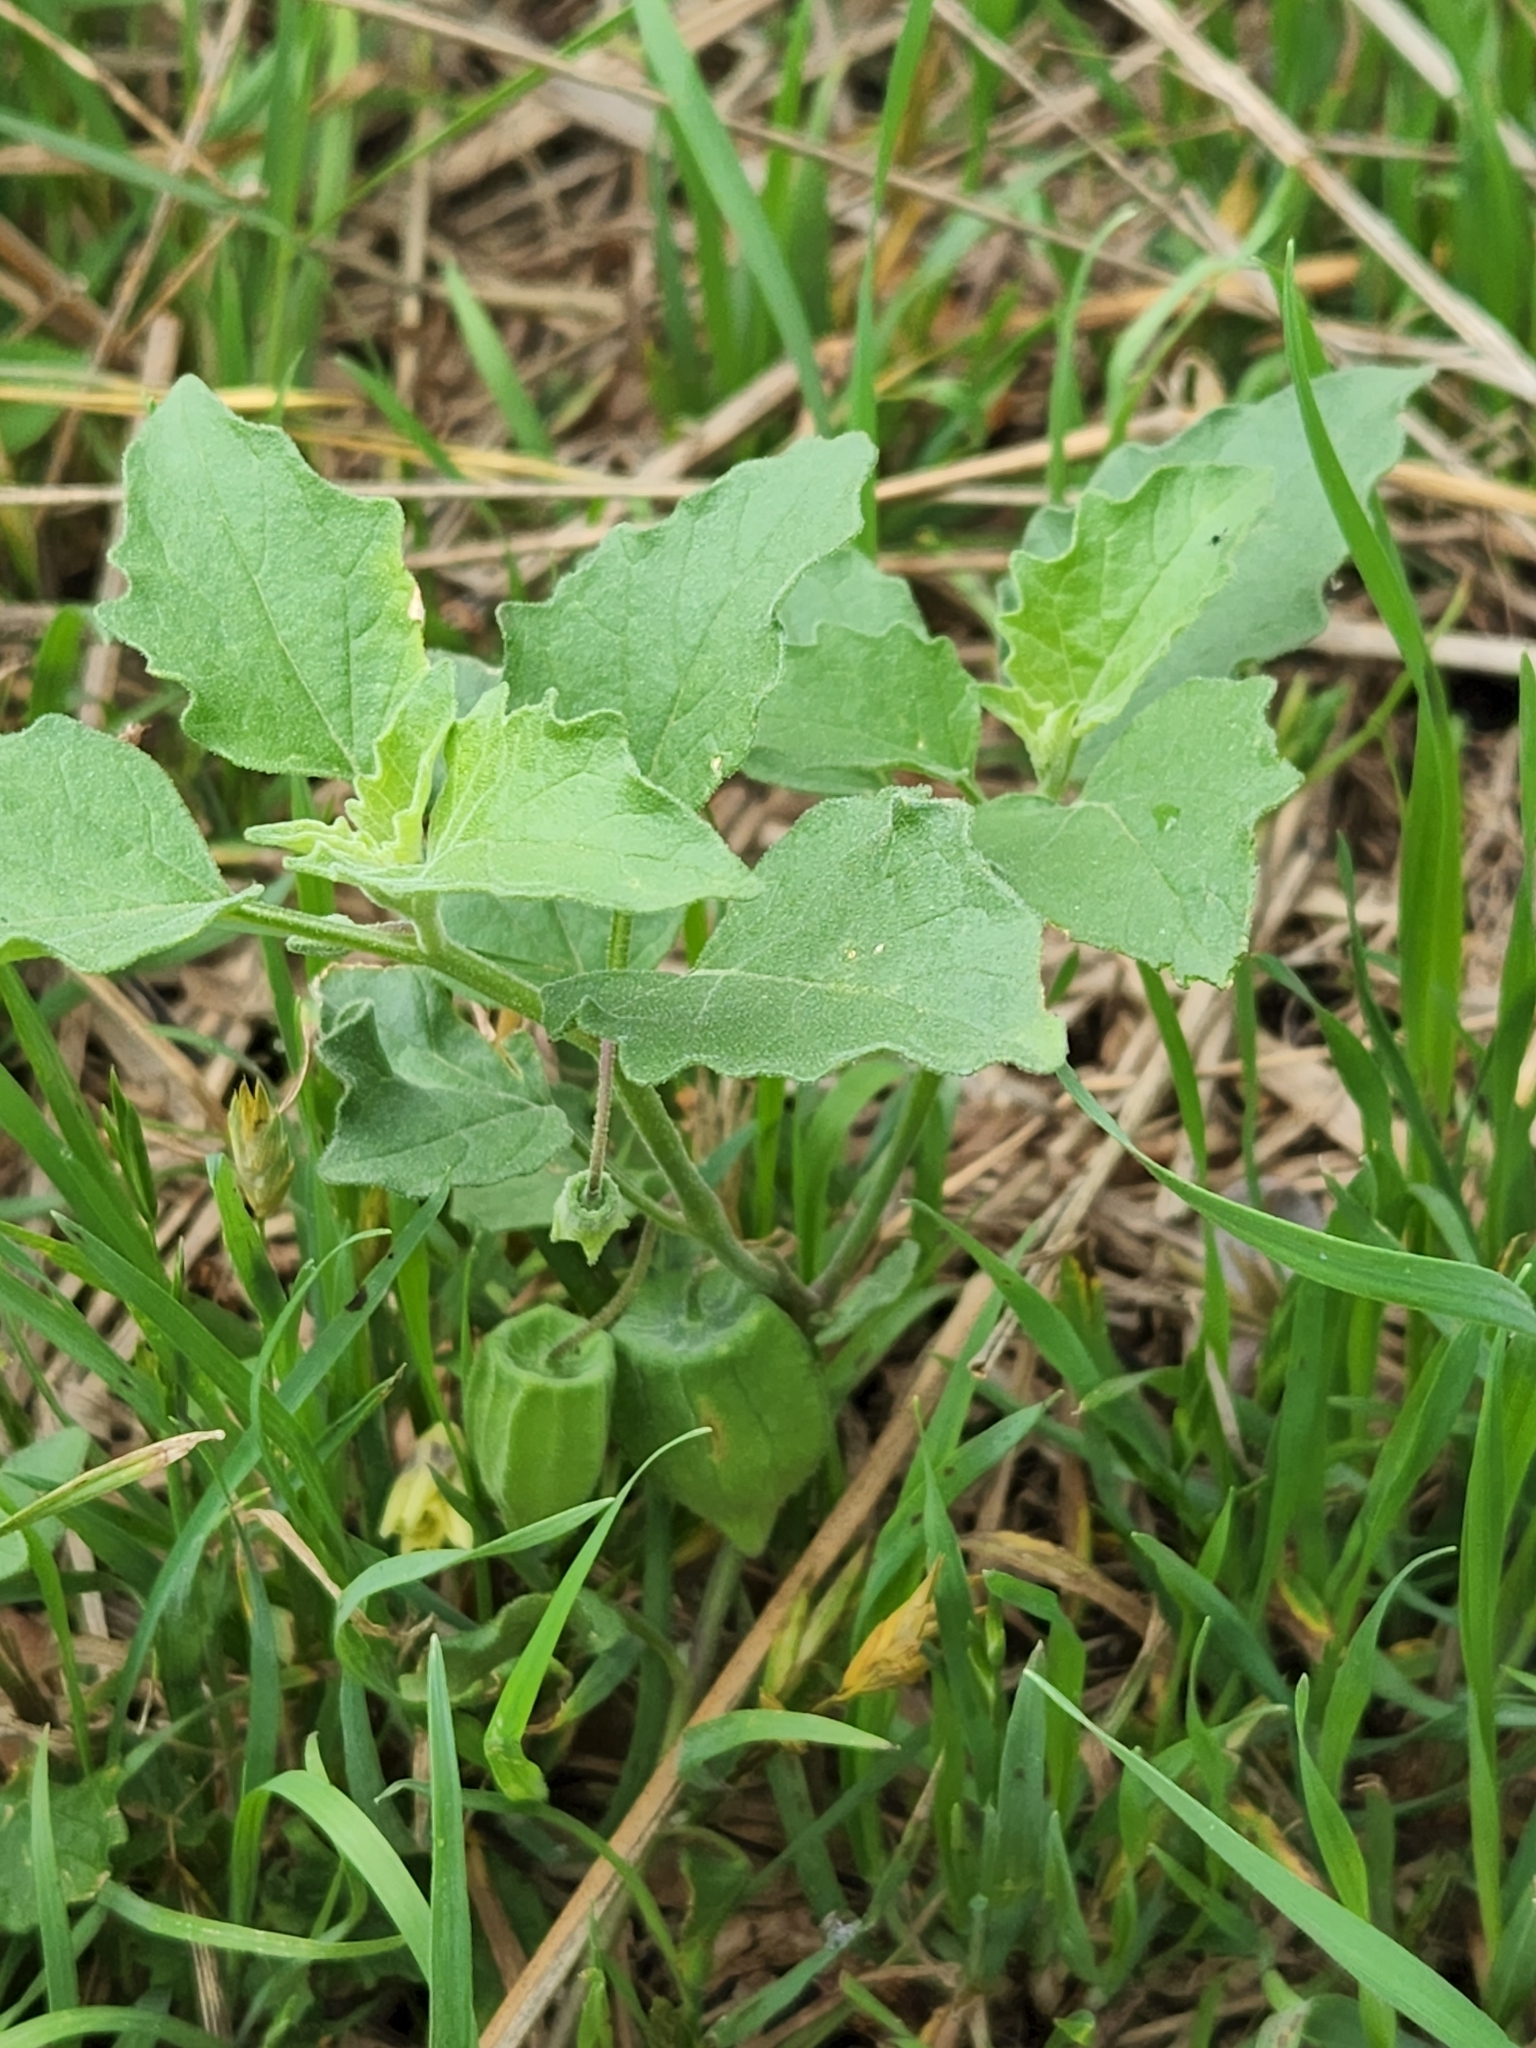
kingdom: Plantae
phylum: Tracheophyta
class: Magnoliopsida
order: Solanales
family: Solanaceae
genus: Physalis
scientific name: Physalis cinerascens
